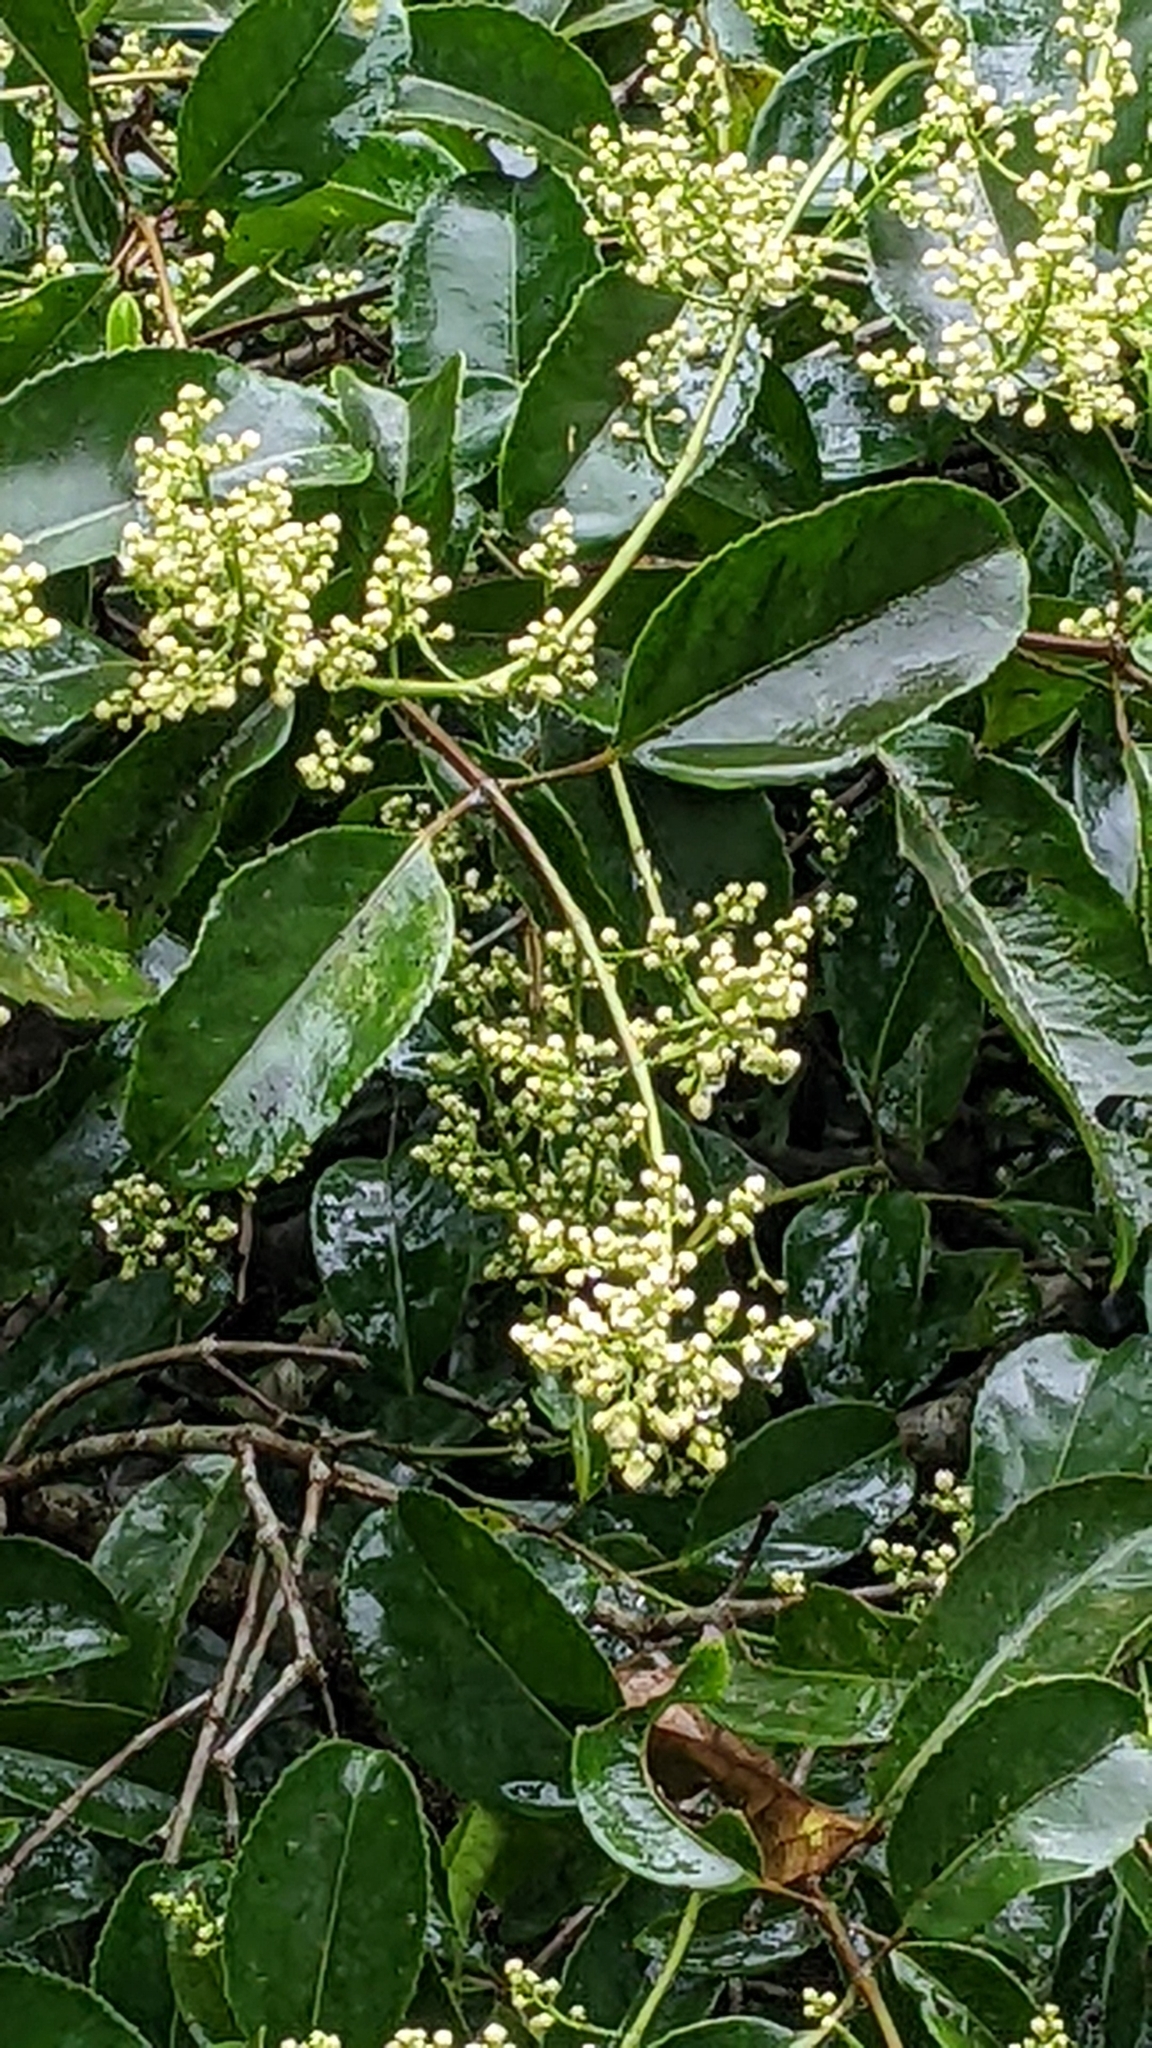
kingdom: Plantae
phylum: Tracheophyta
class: Magnoliopsida
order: Crossosomatales
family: Staphyleaceae
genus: Turpinia
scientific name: Turpinia formosana
